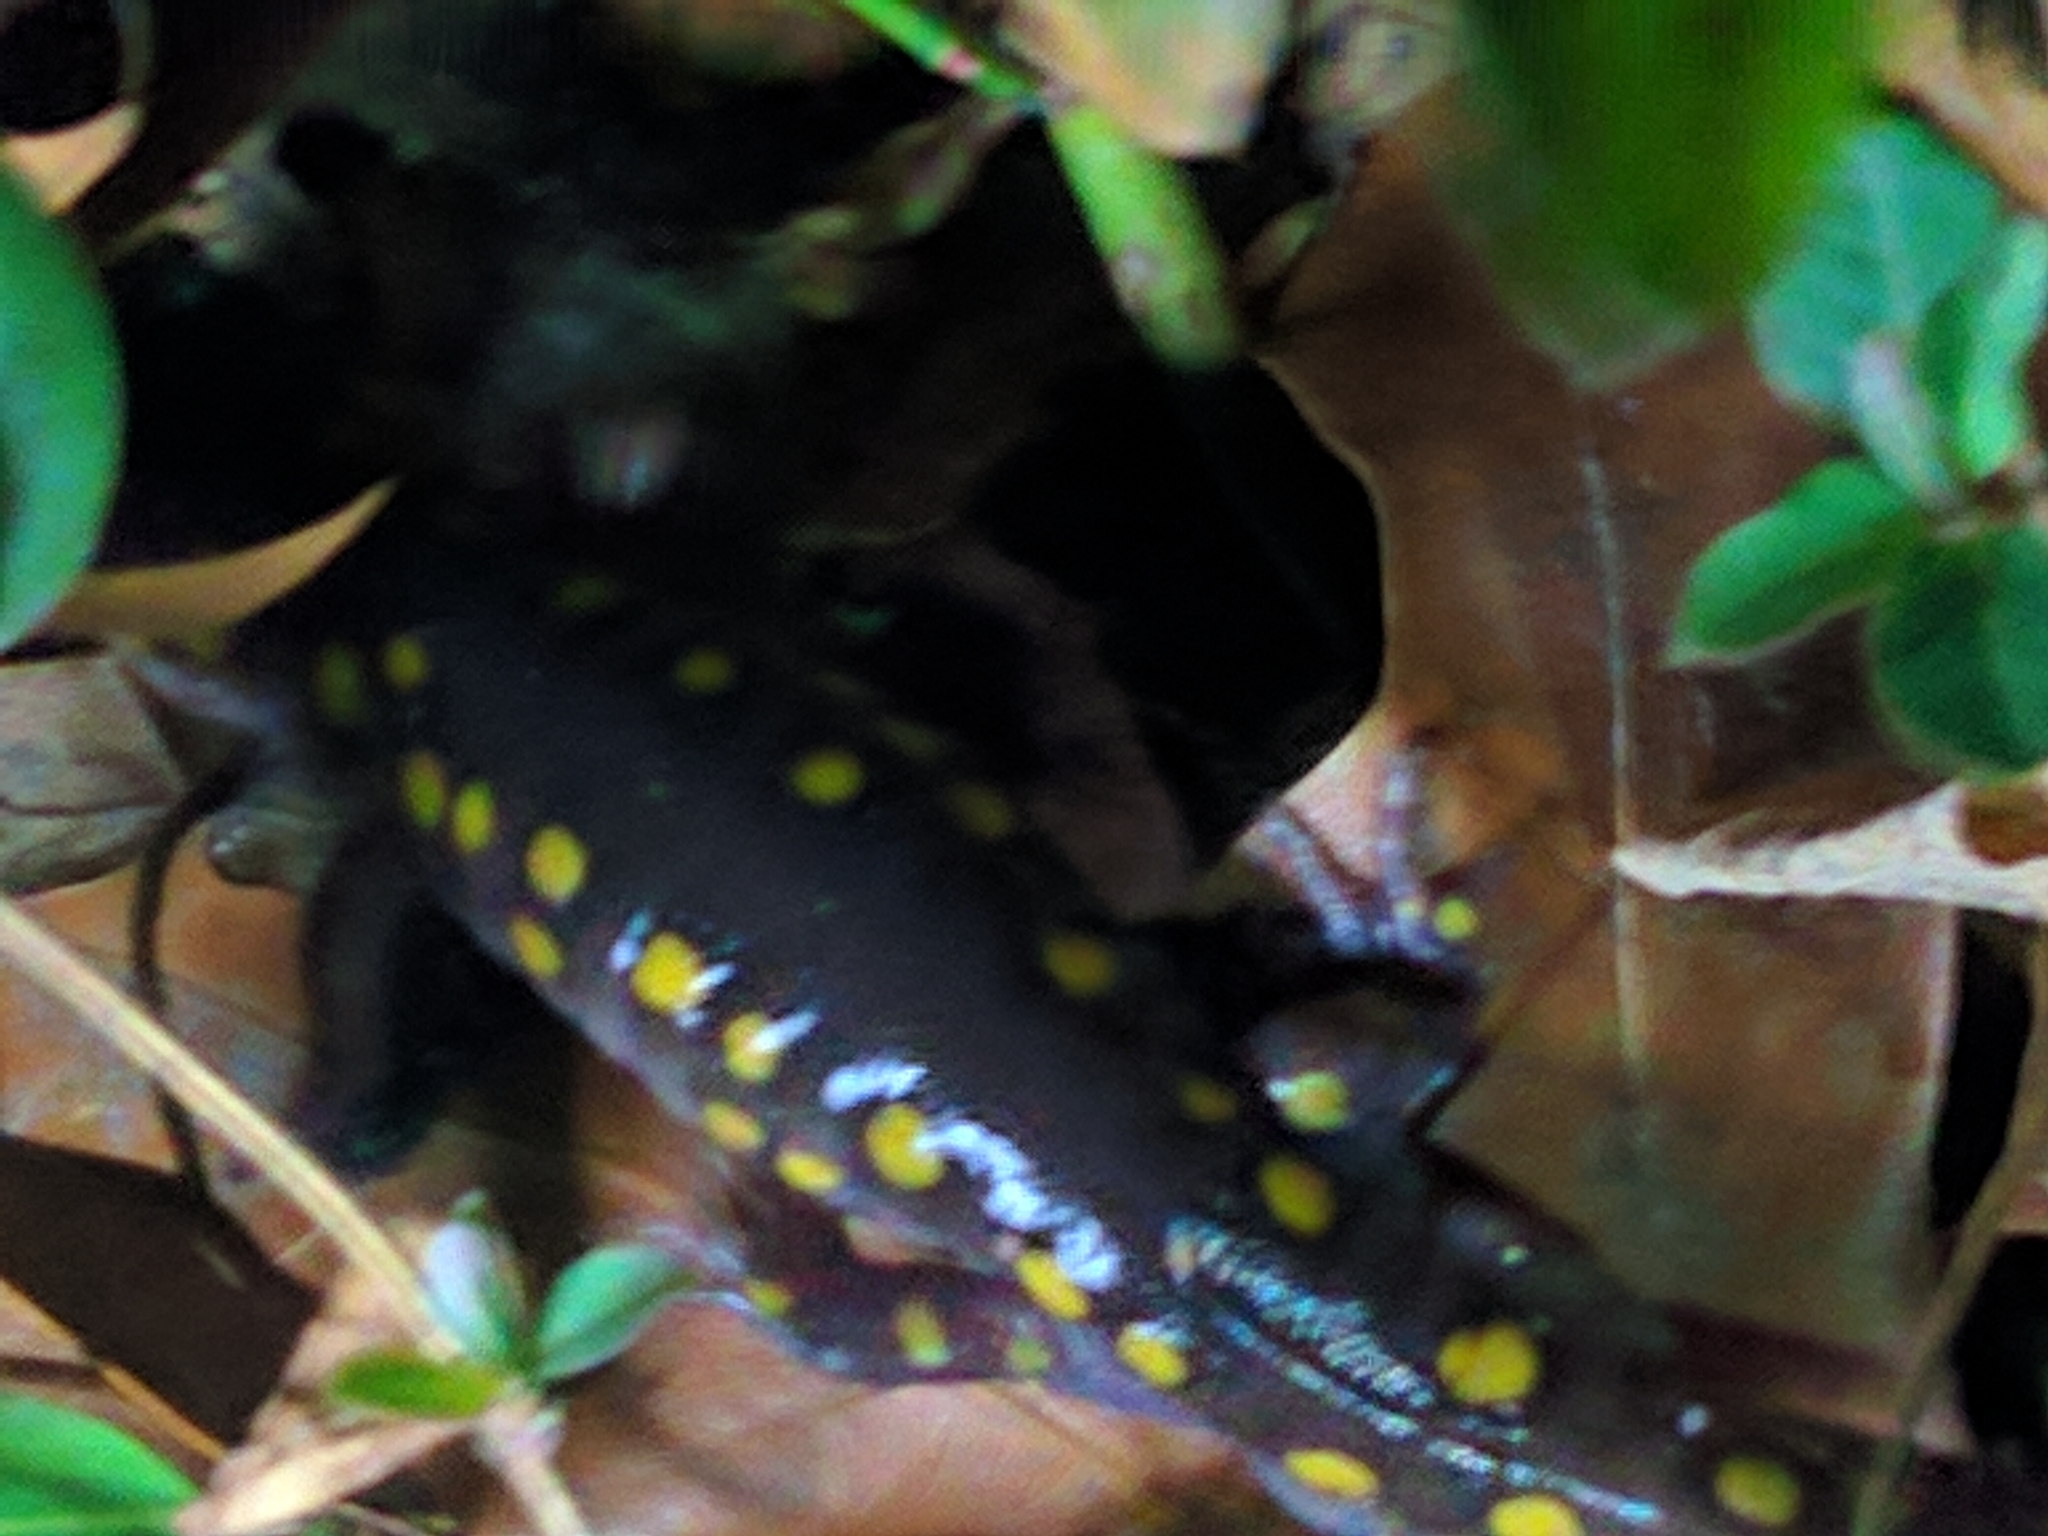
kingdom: Animalia
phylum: Chordata
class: Amphibia
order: Caudata
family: Ambystomatidae
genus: Ambystoma
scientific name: Ambystoma maculatum
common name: Spotted salamander
